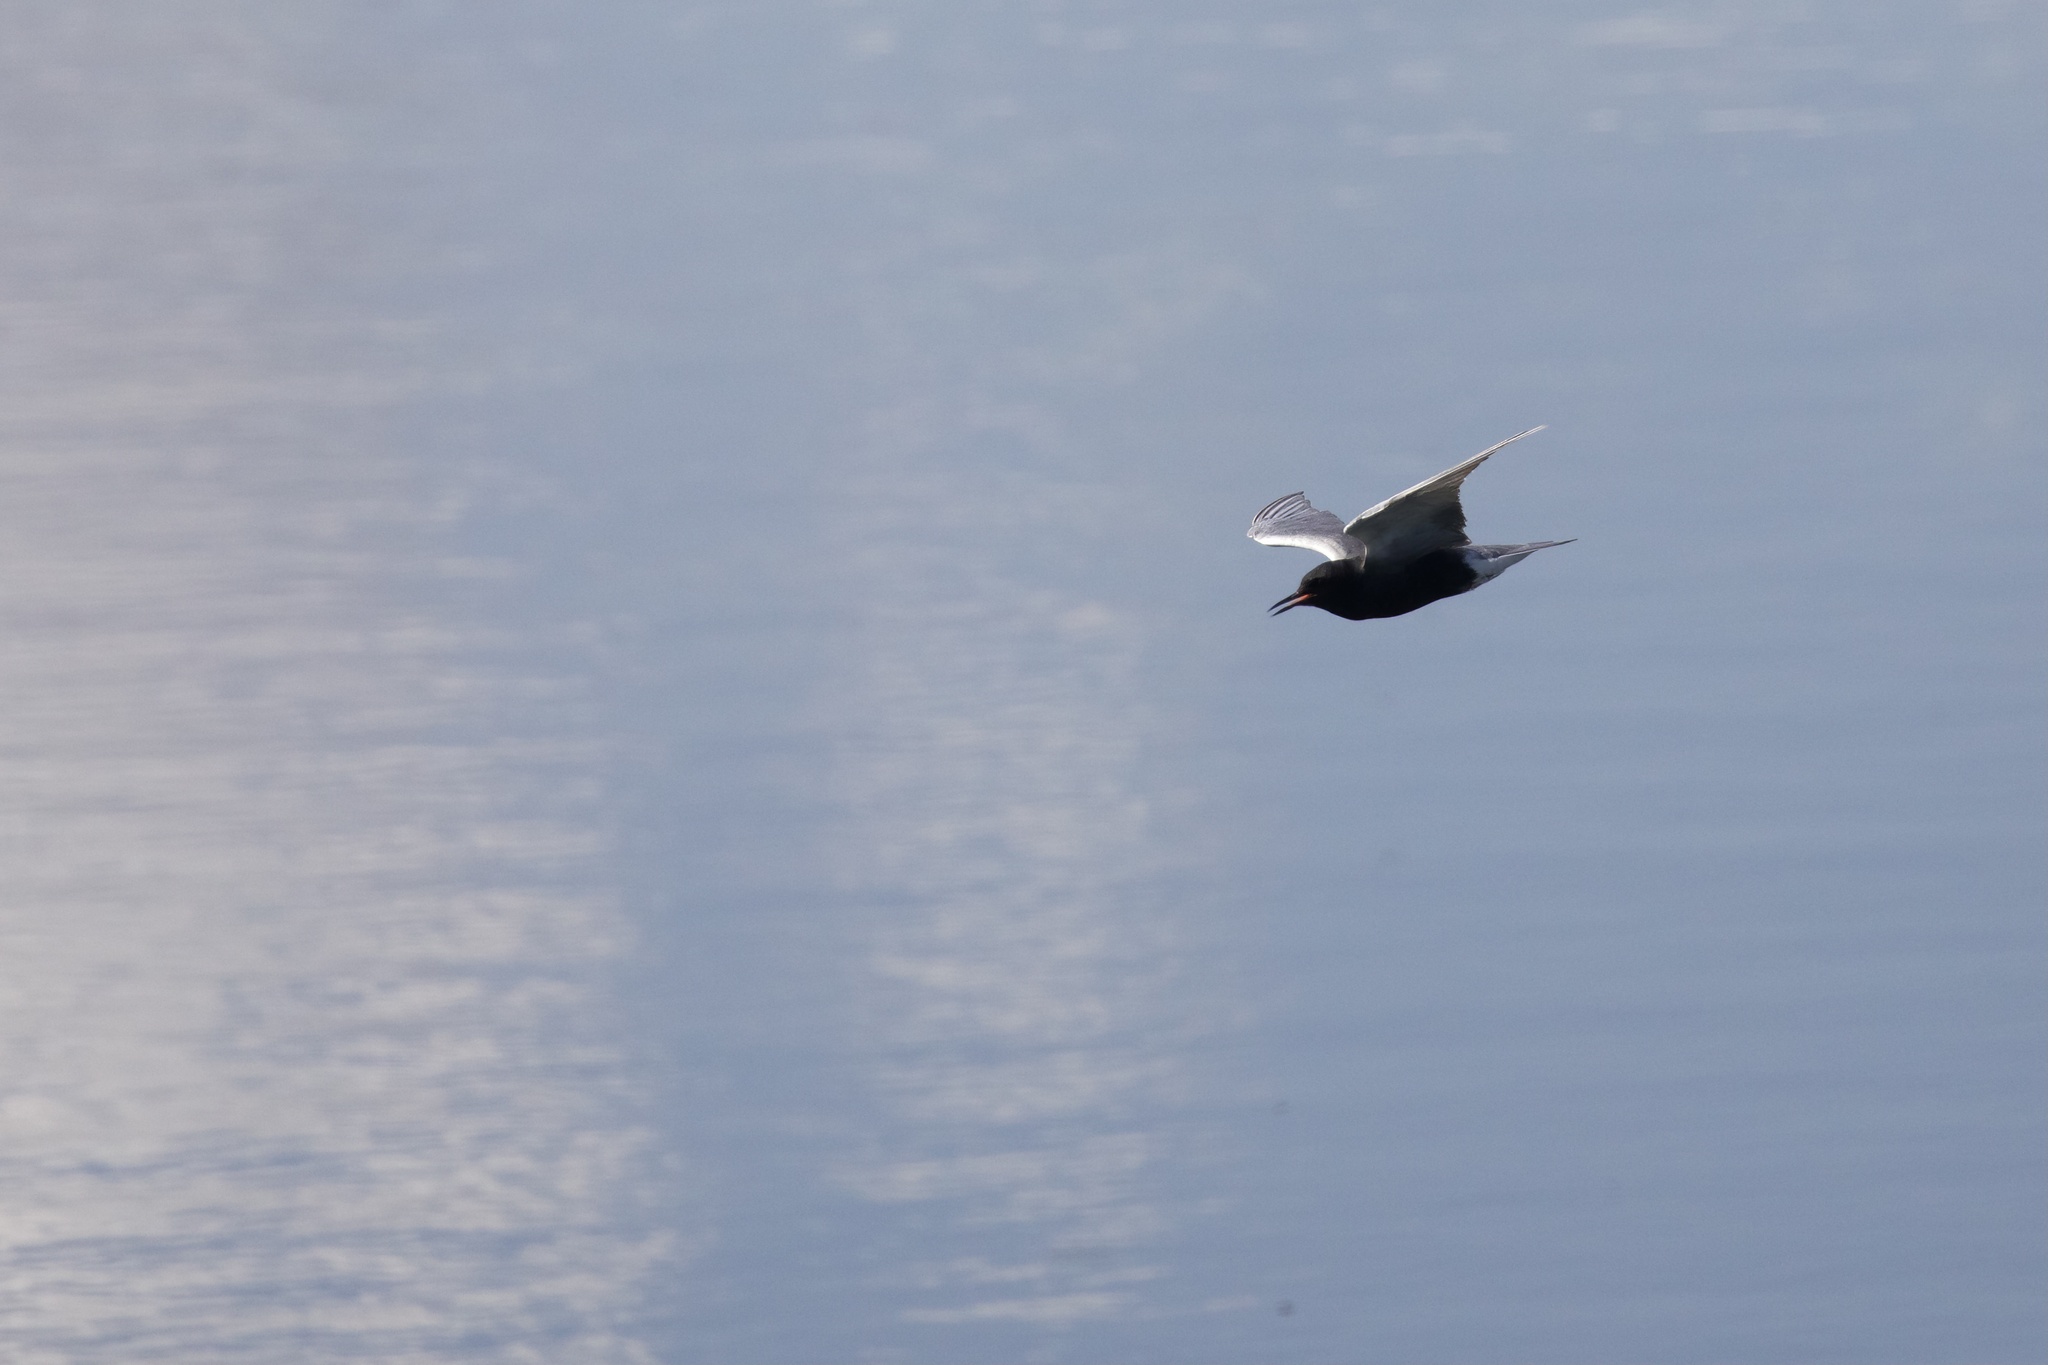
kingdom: Animalia
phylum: Chordata
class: Aves
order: Charadriiformes
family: Laridae
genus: Chlidonias
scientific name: Chlidonias niger
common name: Black tern
